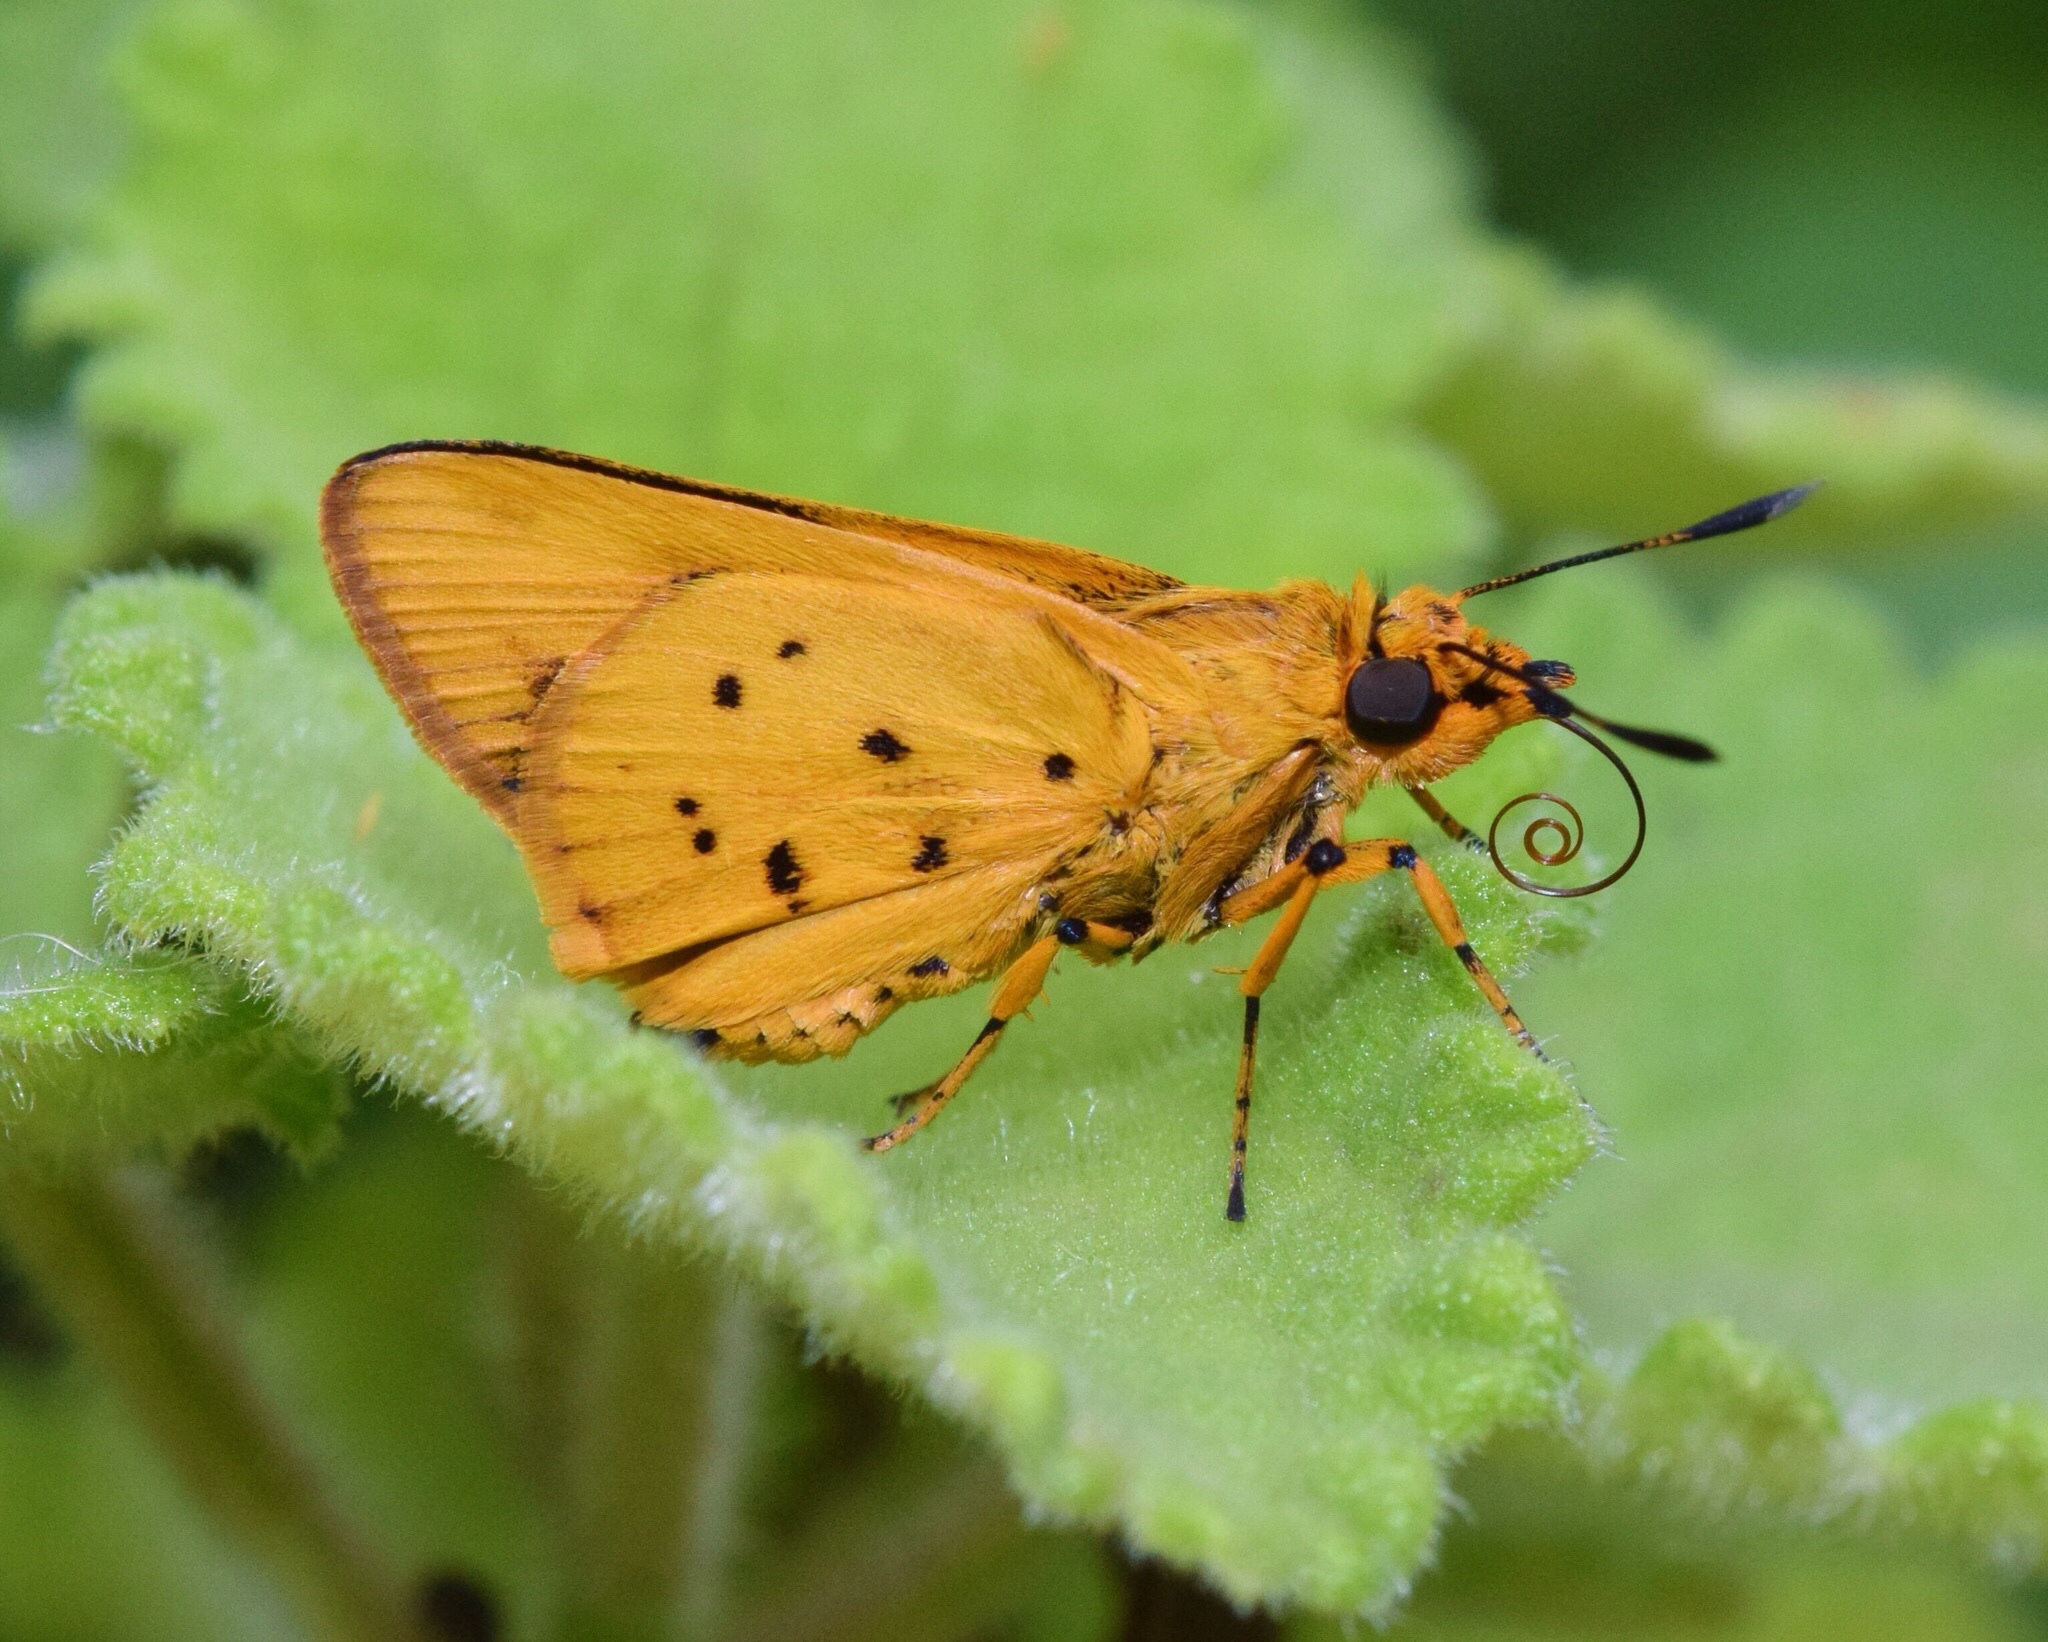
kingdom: Animalia
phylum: Arthropoda
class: Insecta
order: Lepidoptera
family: Hesperiidae
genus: Parosmodes
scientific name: Parosmodes morantii
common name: Morant's orange
